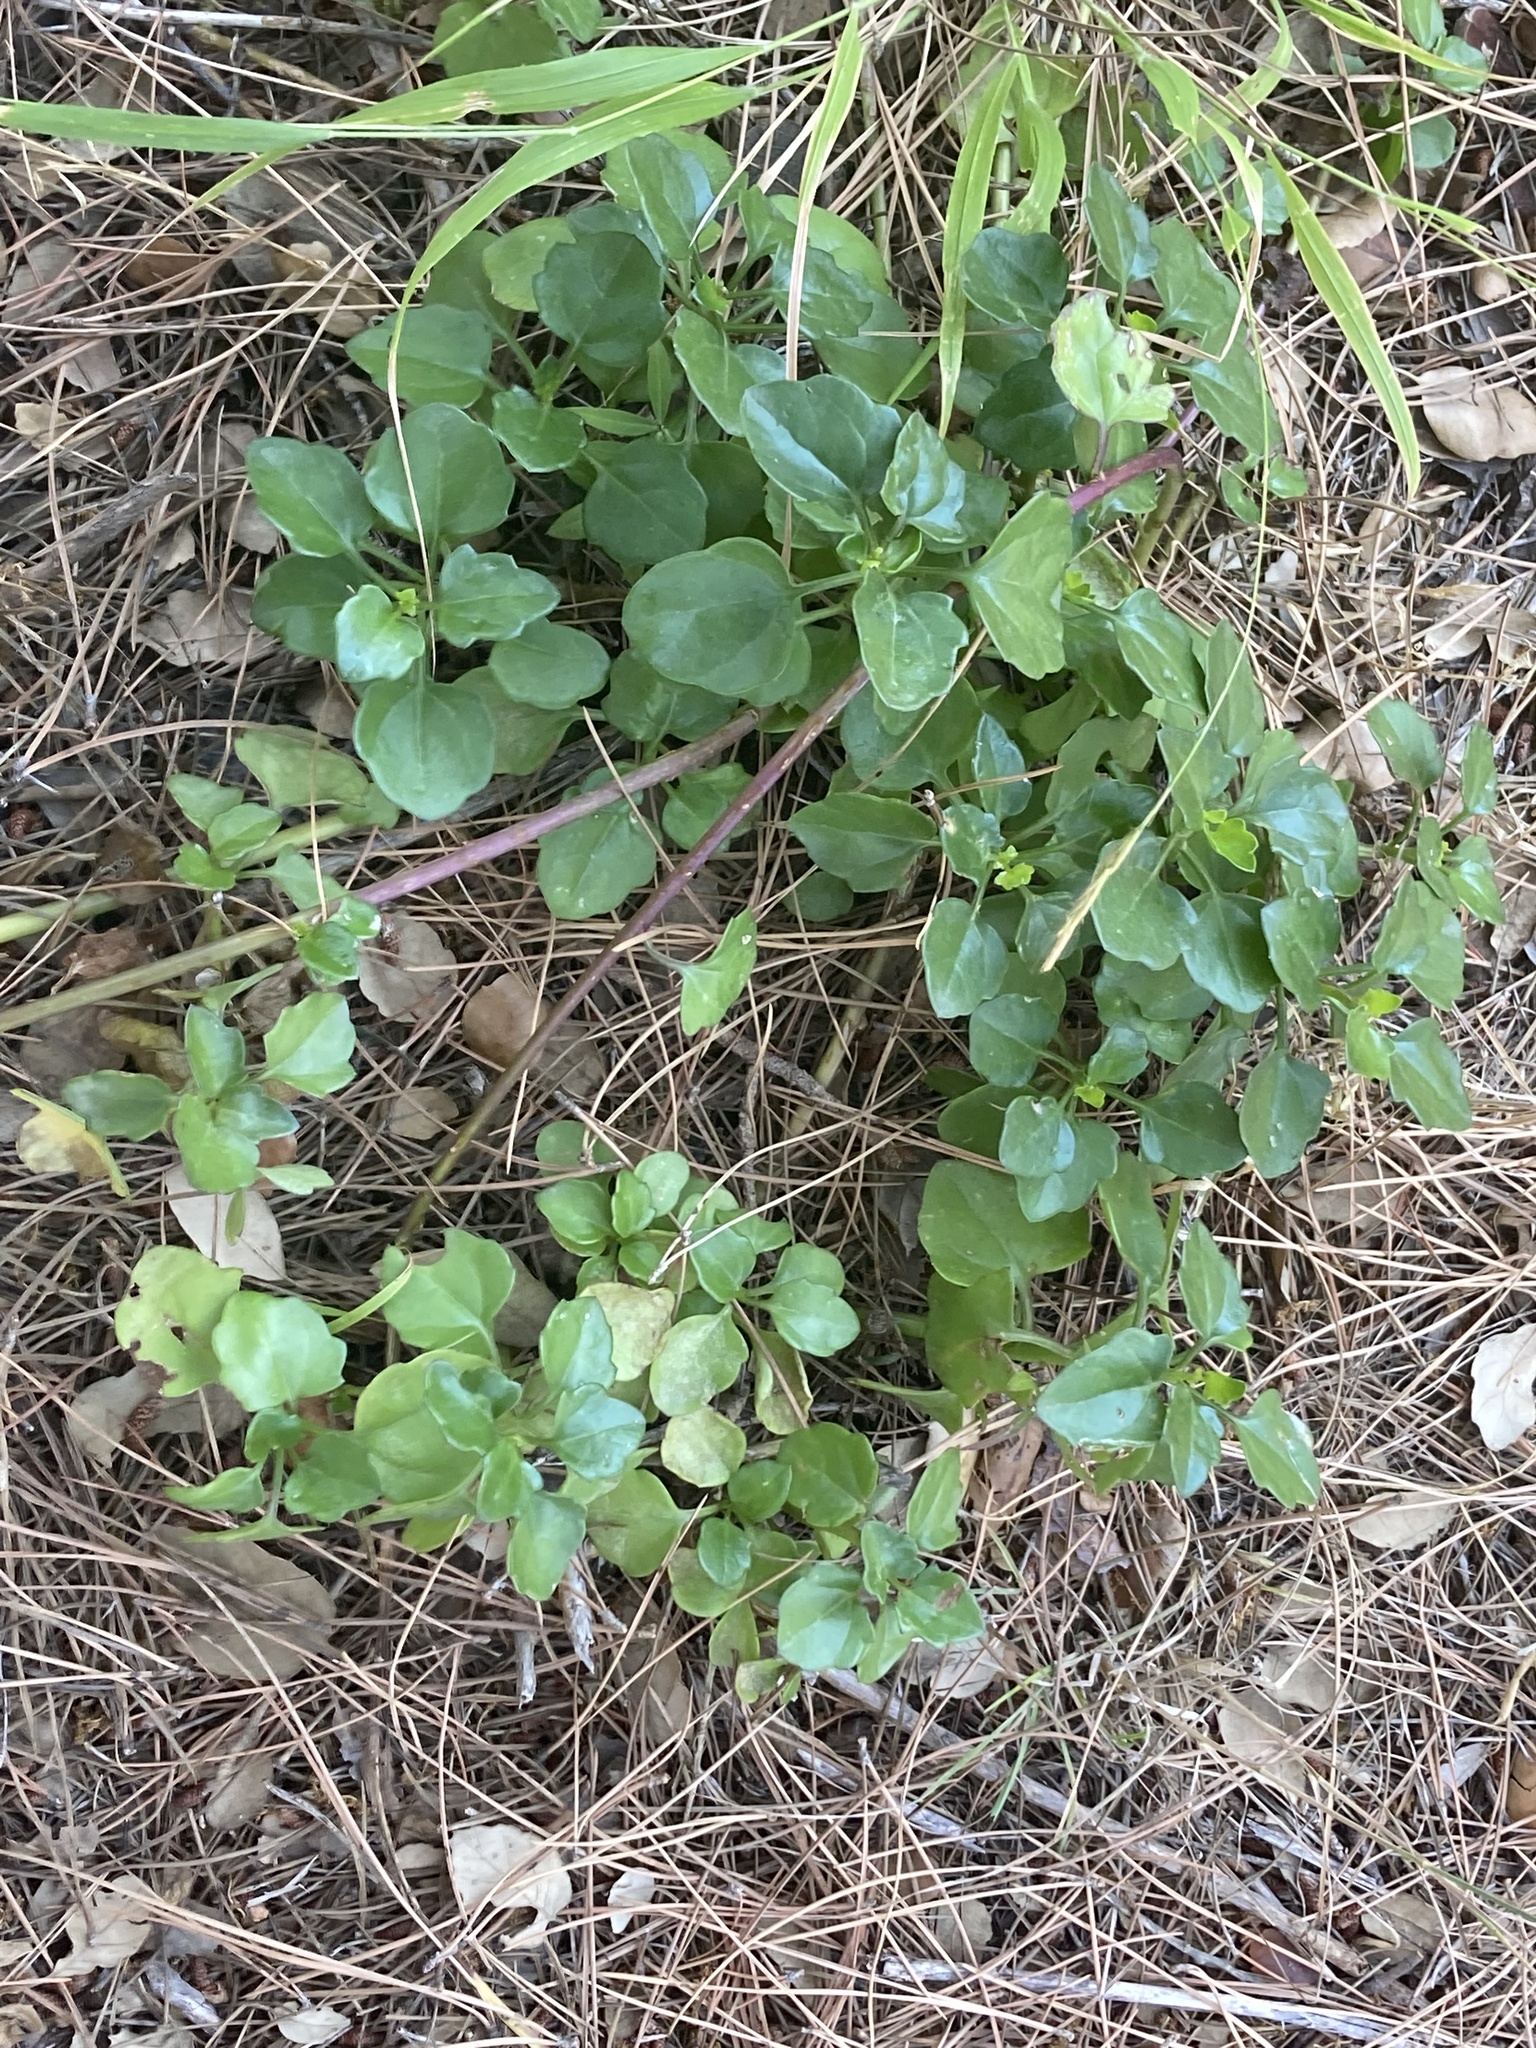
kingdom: Plantae
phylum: Tracheophyta
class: Magnoliopsida
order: Asterales
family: Asteraceae
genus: Senecio
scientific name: Senecio angulatus
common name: Climbing groundsel
